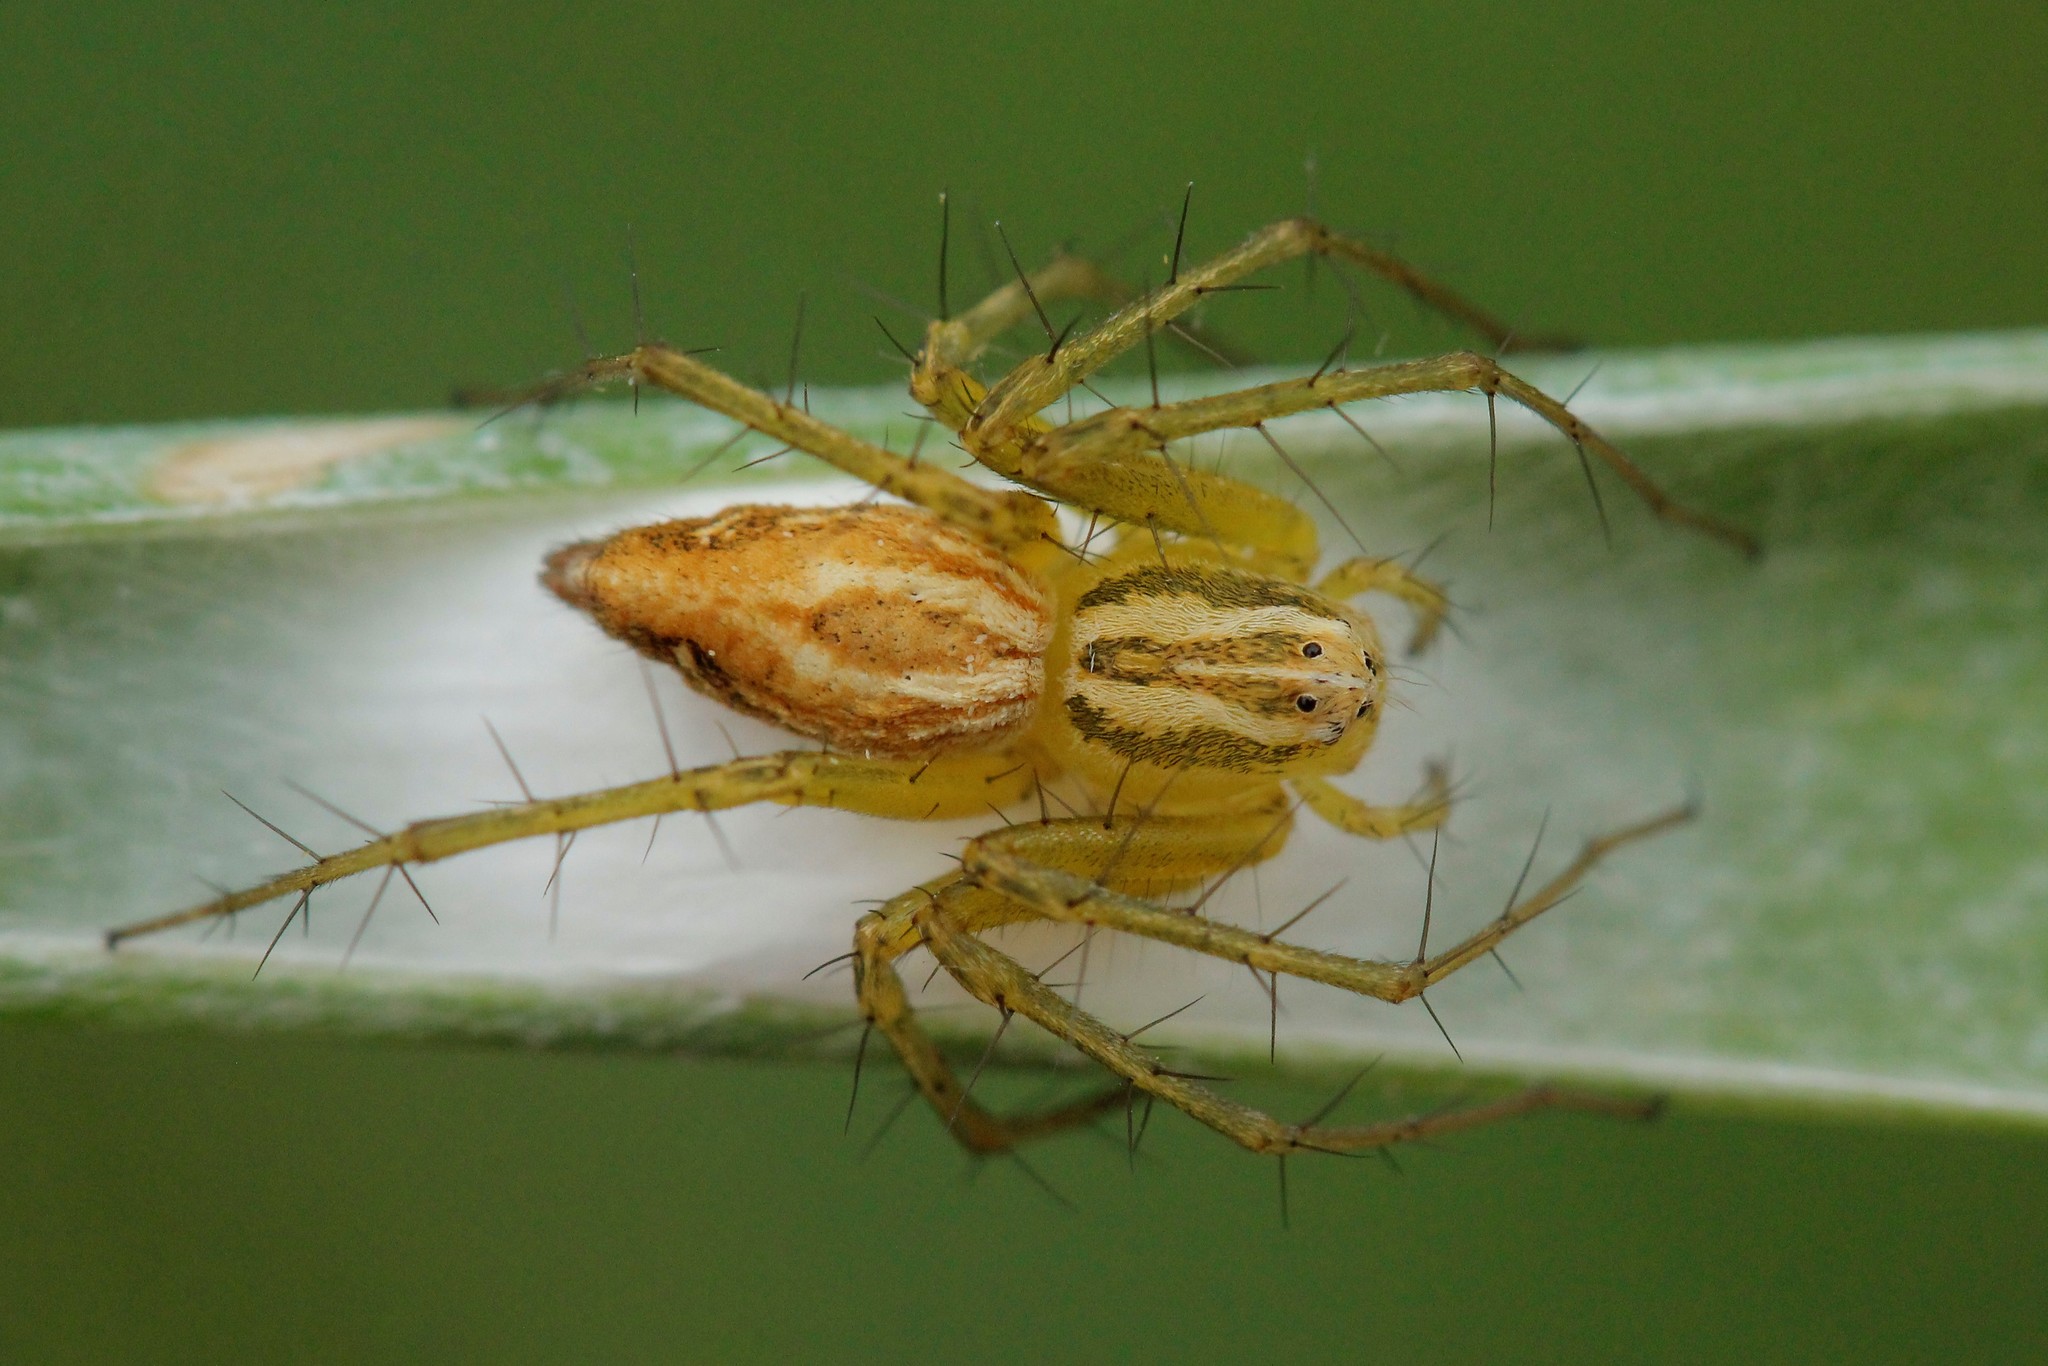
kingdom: Animalia
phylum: Arthropoda
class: Arachnida
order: Araneae
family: Oxyopidae
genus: Oxyopes
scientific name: Oxyopes lineatus
